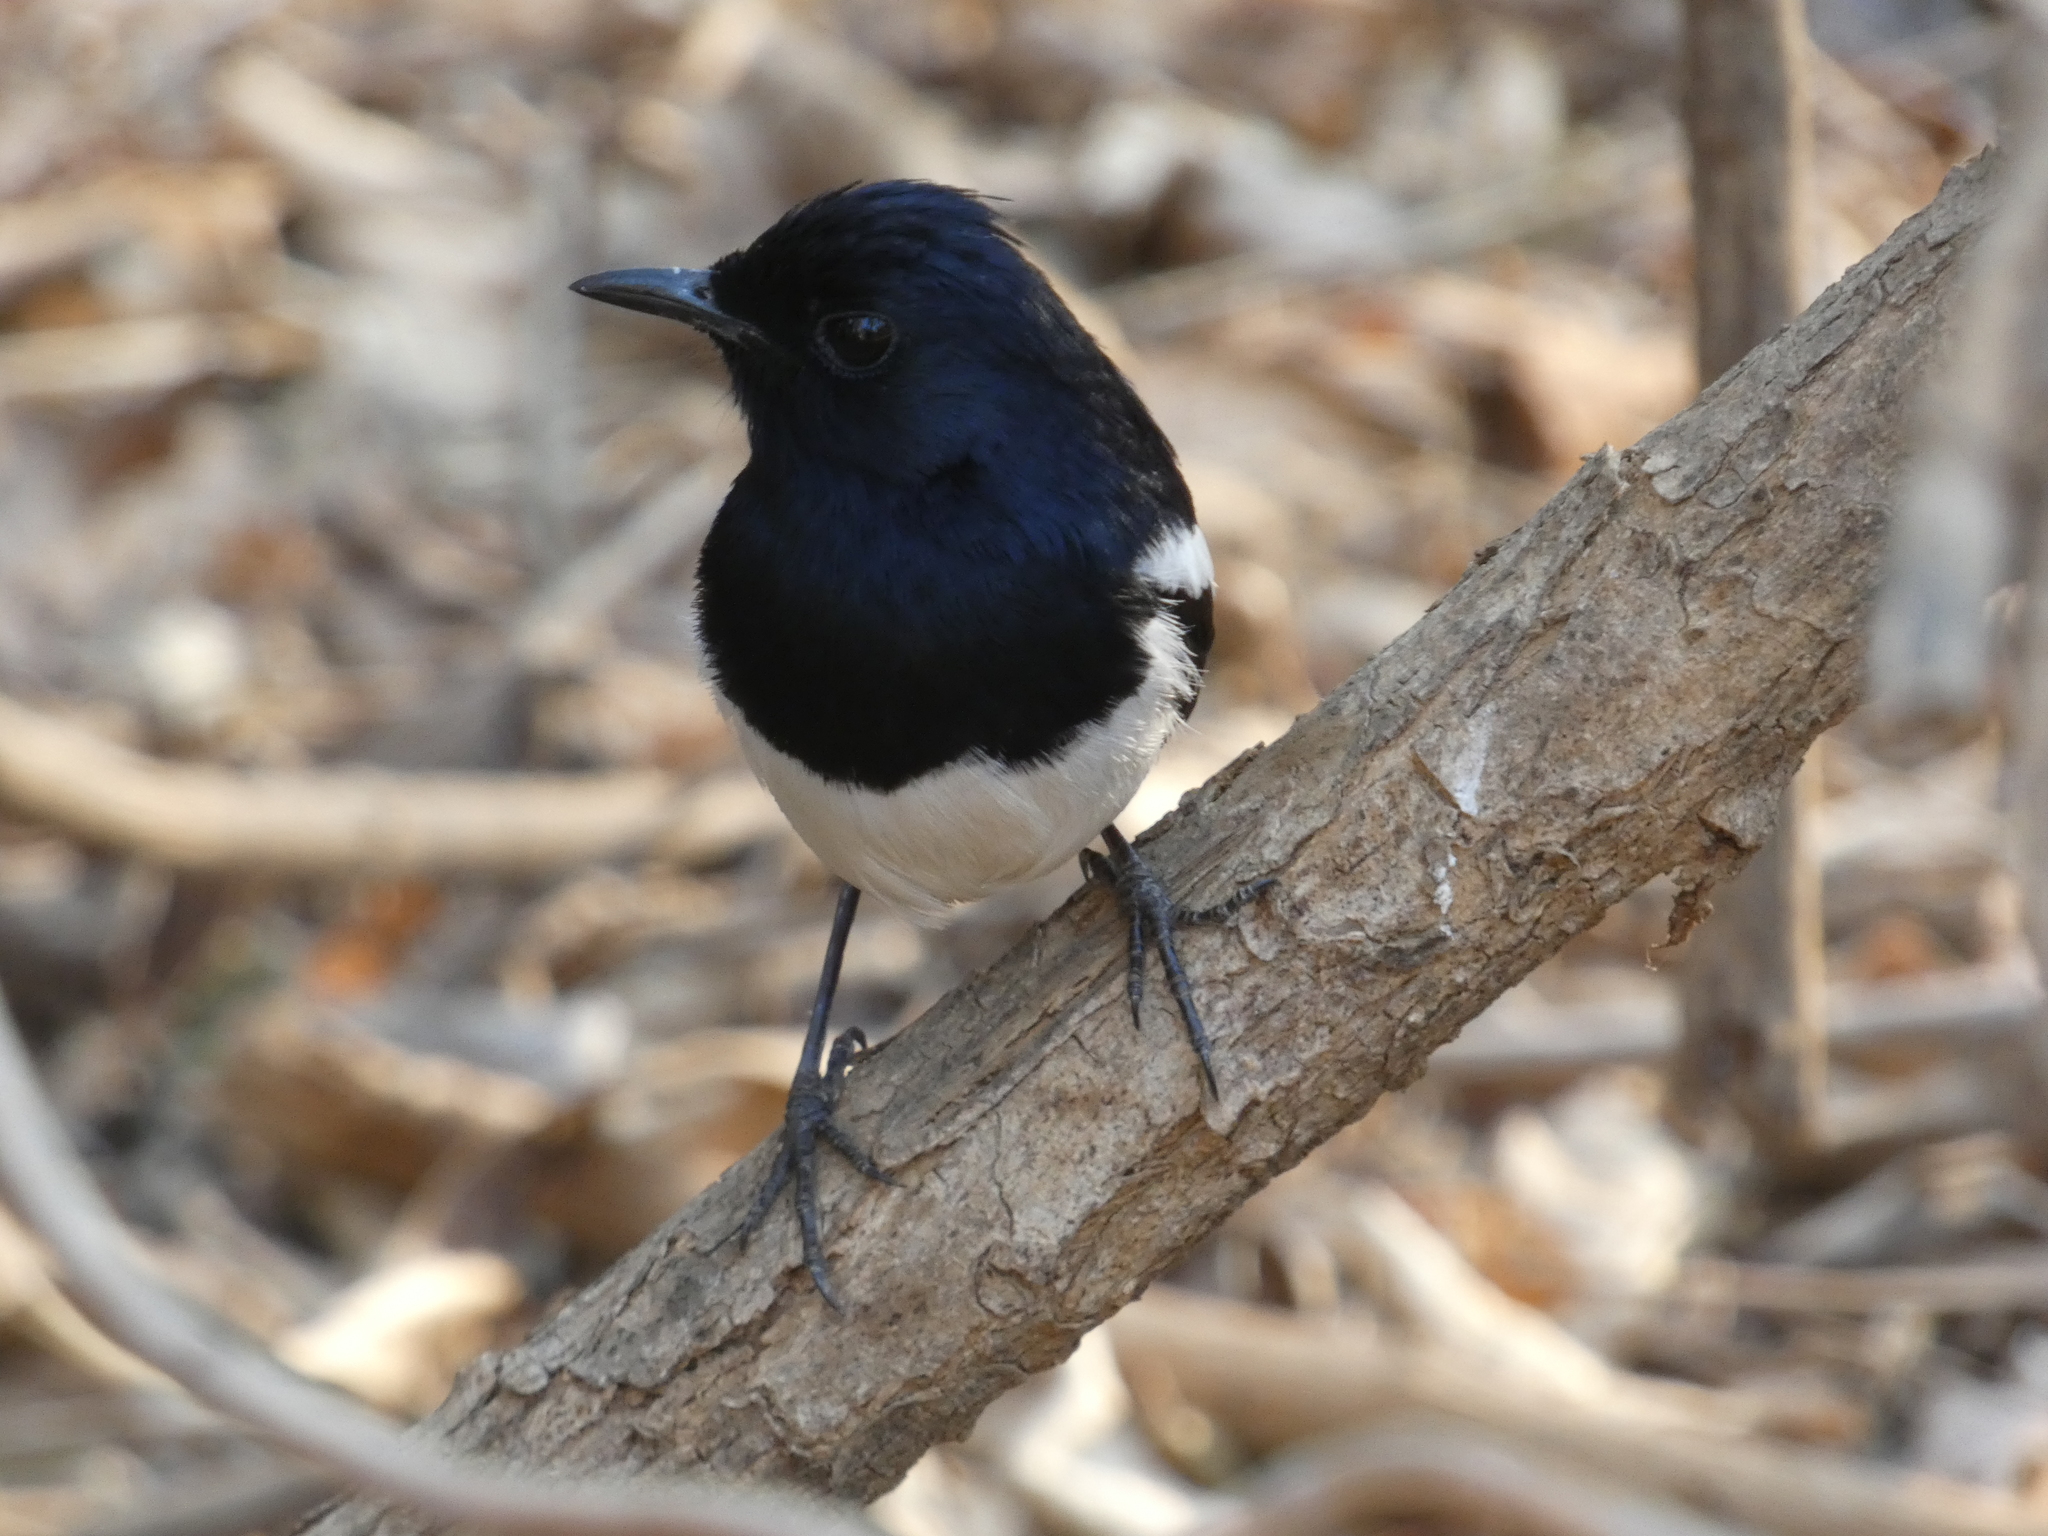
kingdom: Animalia
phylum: Chordata
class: Aves
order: Passeriformes
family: Muscicapidae
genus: Copsychus
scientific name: Copsychus albospecularis
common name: Madagascar magpie-robin
